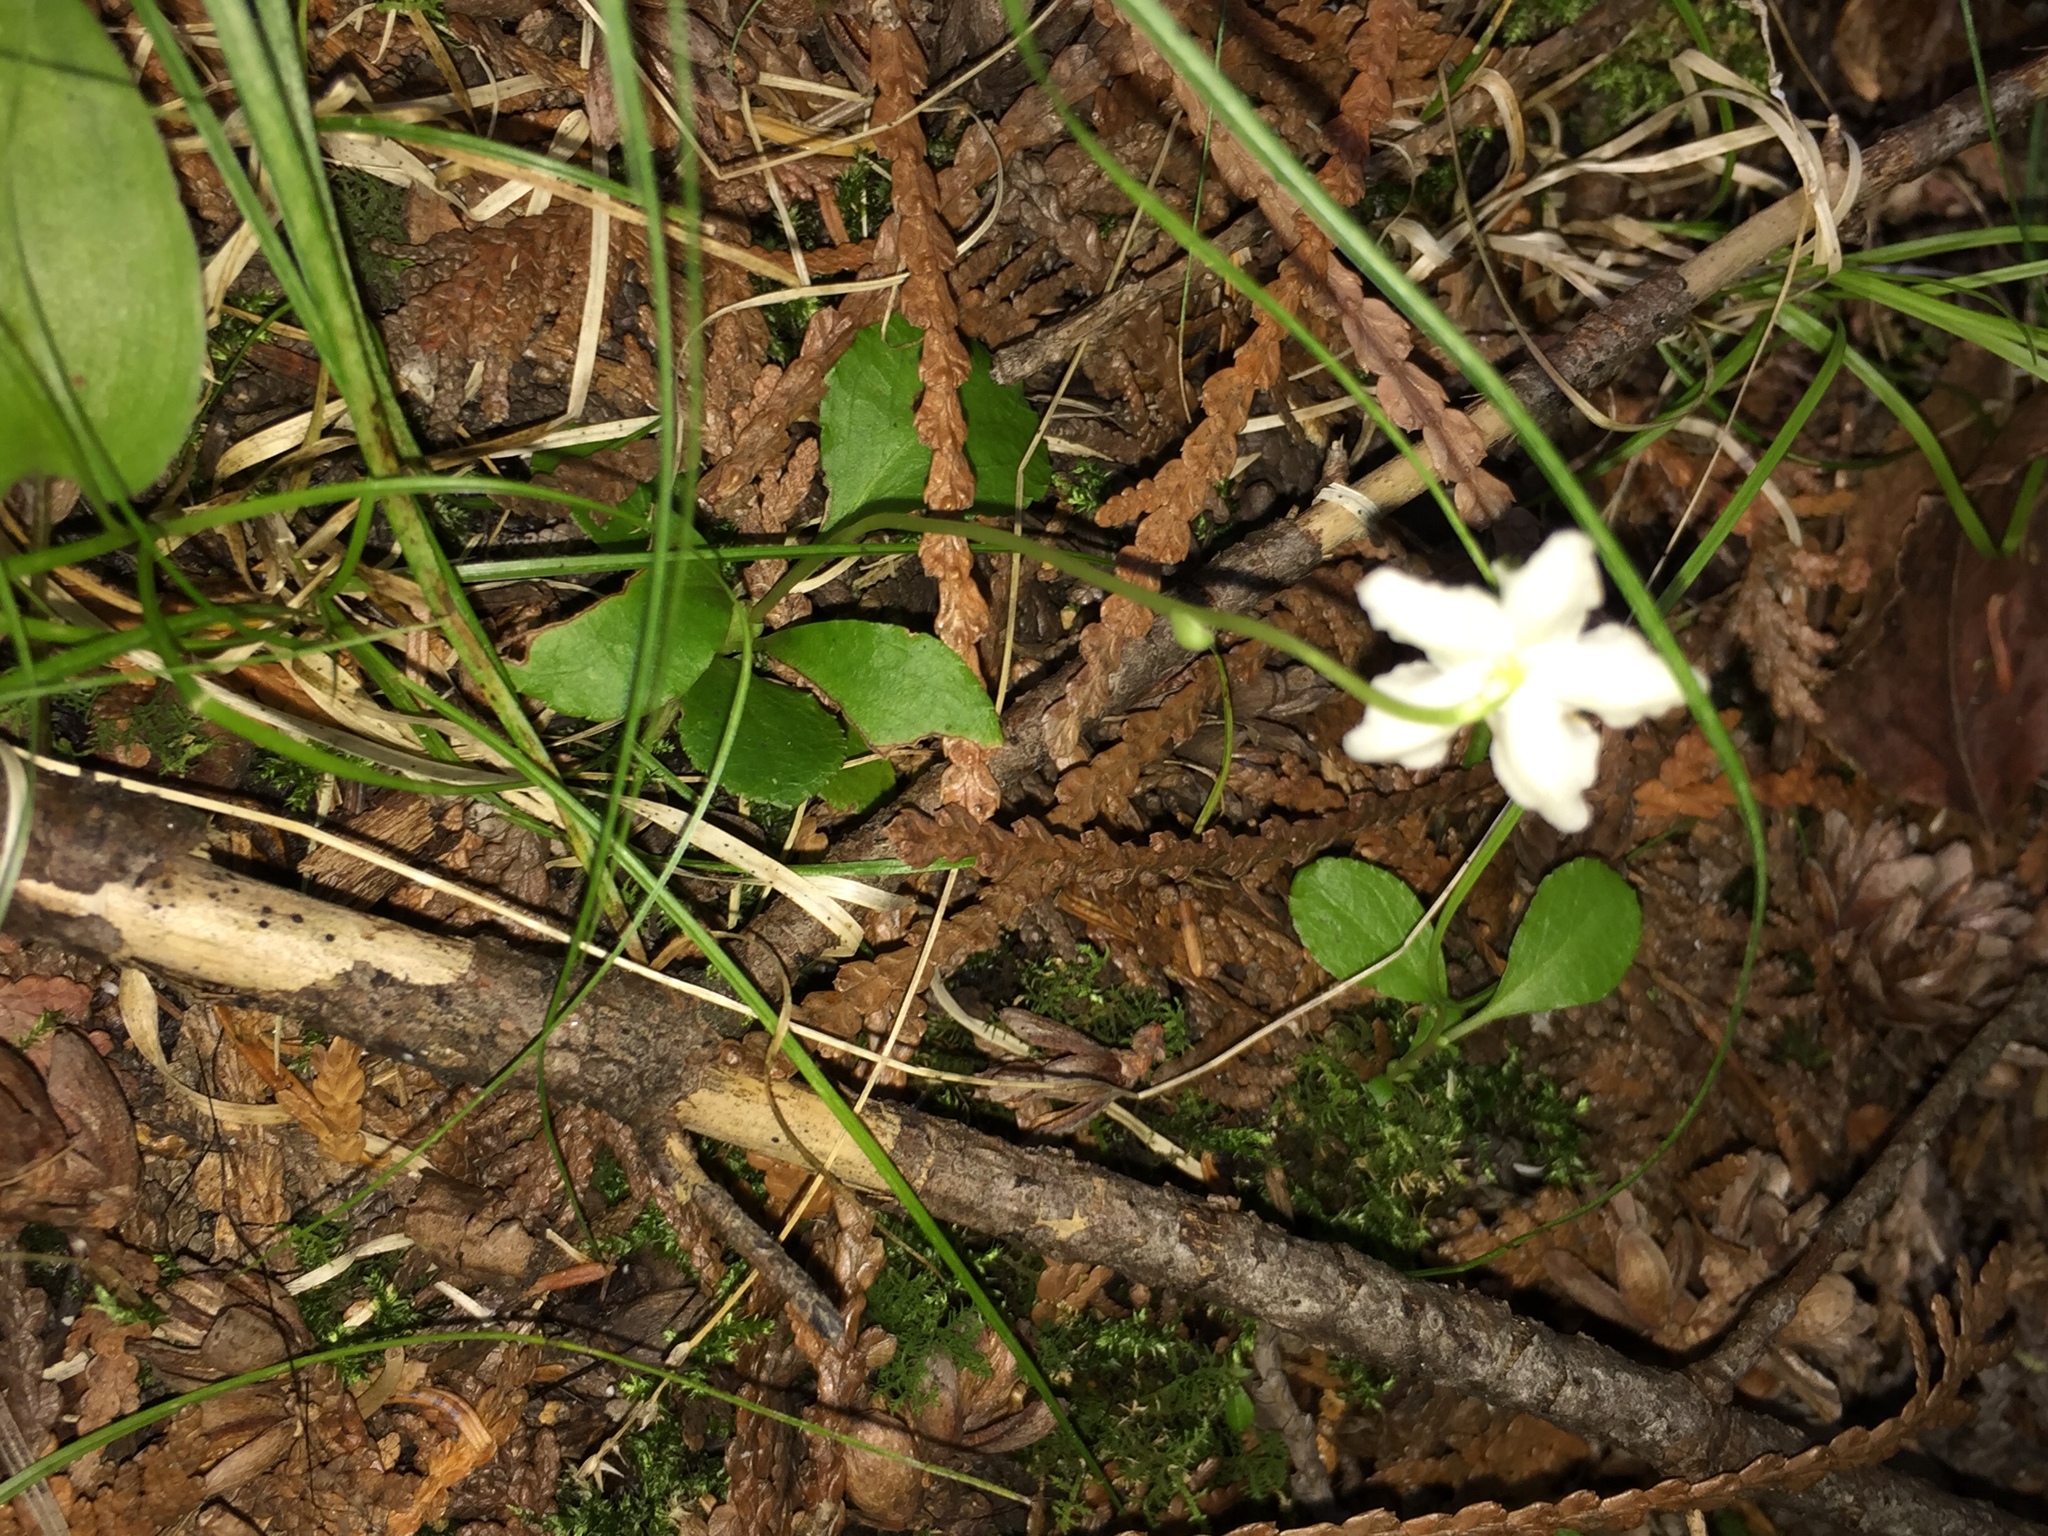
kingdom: Plantae
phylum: Tracheophyta
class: Magnoliopsida
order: Ericales
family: Ericaceae
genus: Moneses
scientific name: Moneses uniflora
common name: One-flowered wintergreen
